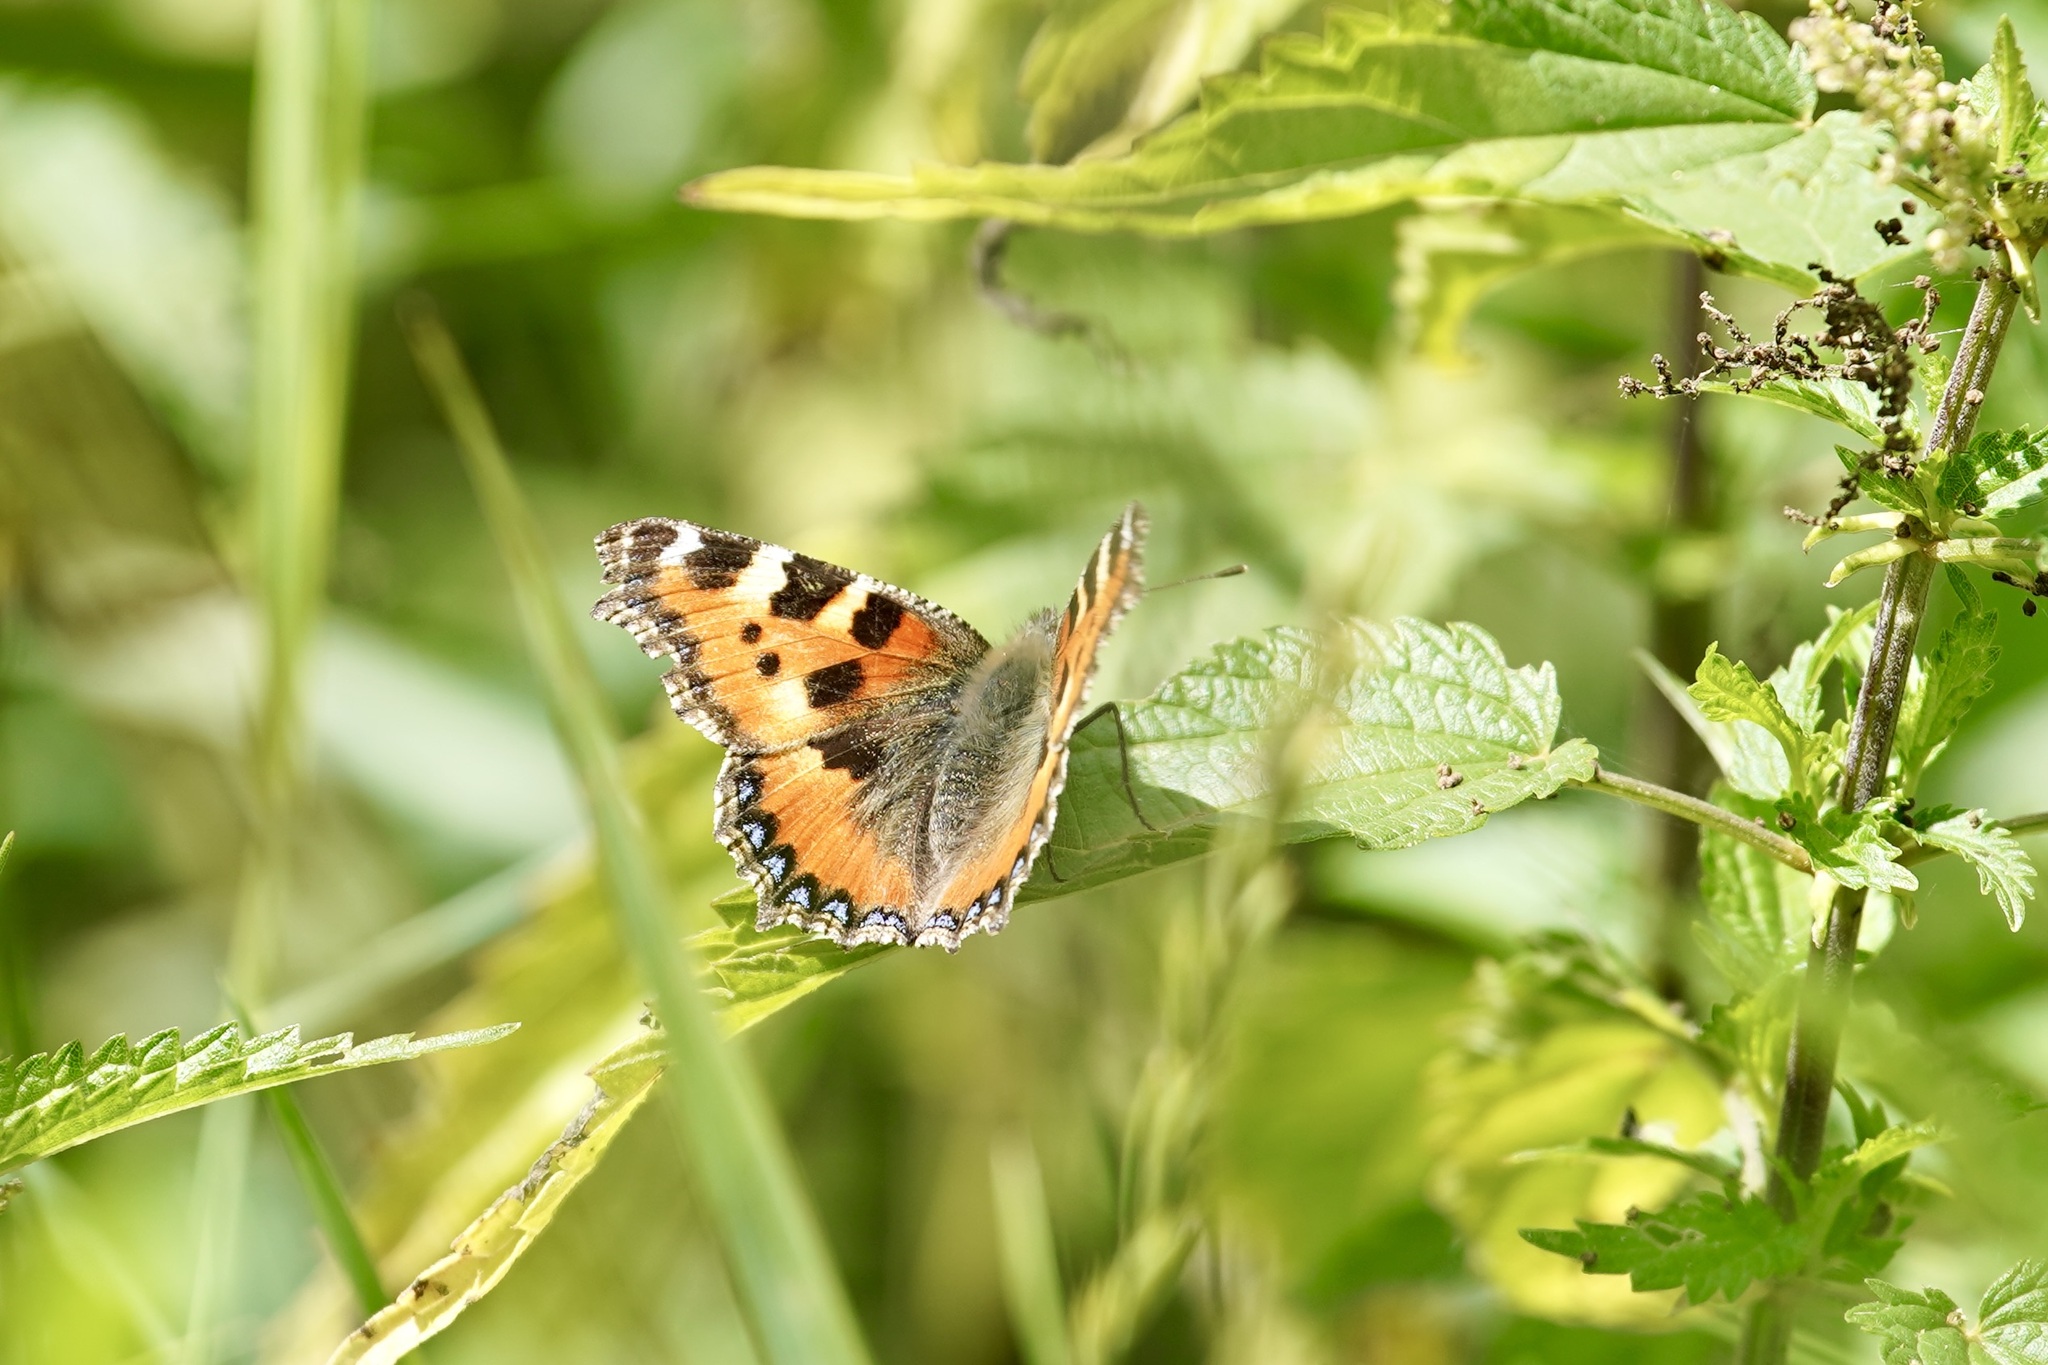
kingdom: Animalia
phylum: Arthropoda
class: Insecta
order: Lepidoptera
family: Nymphalidae
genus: Aglais
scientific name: Aglais urticae
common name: Small tortoiseshell
